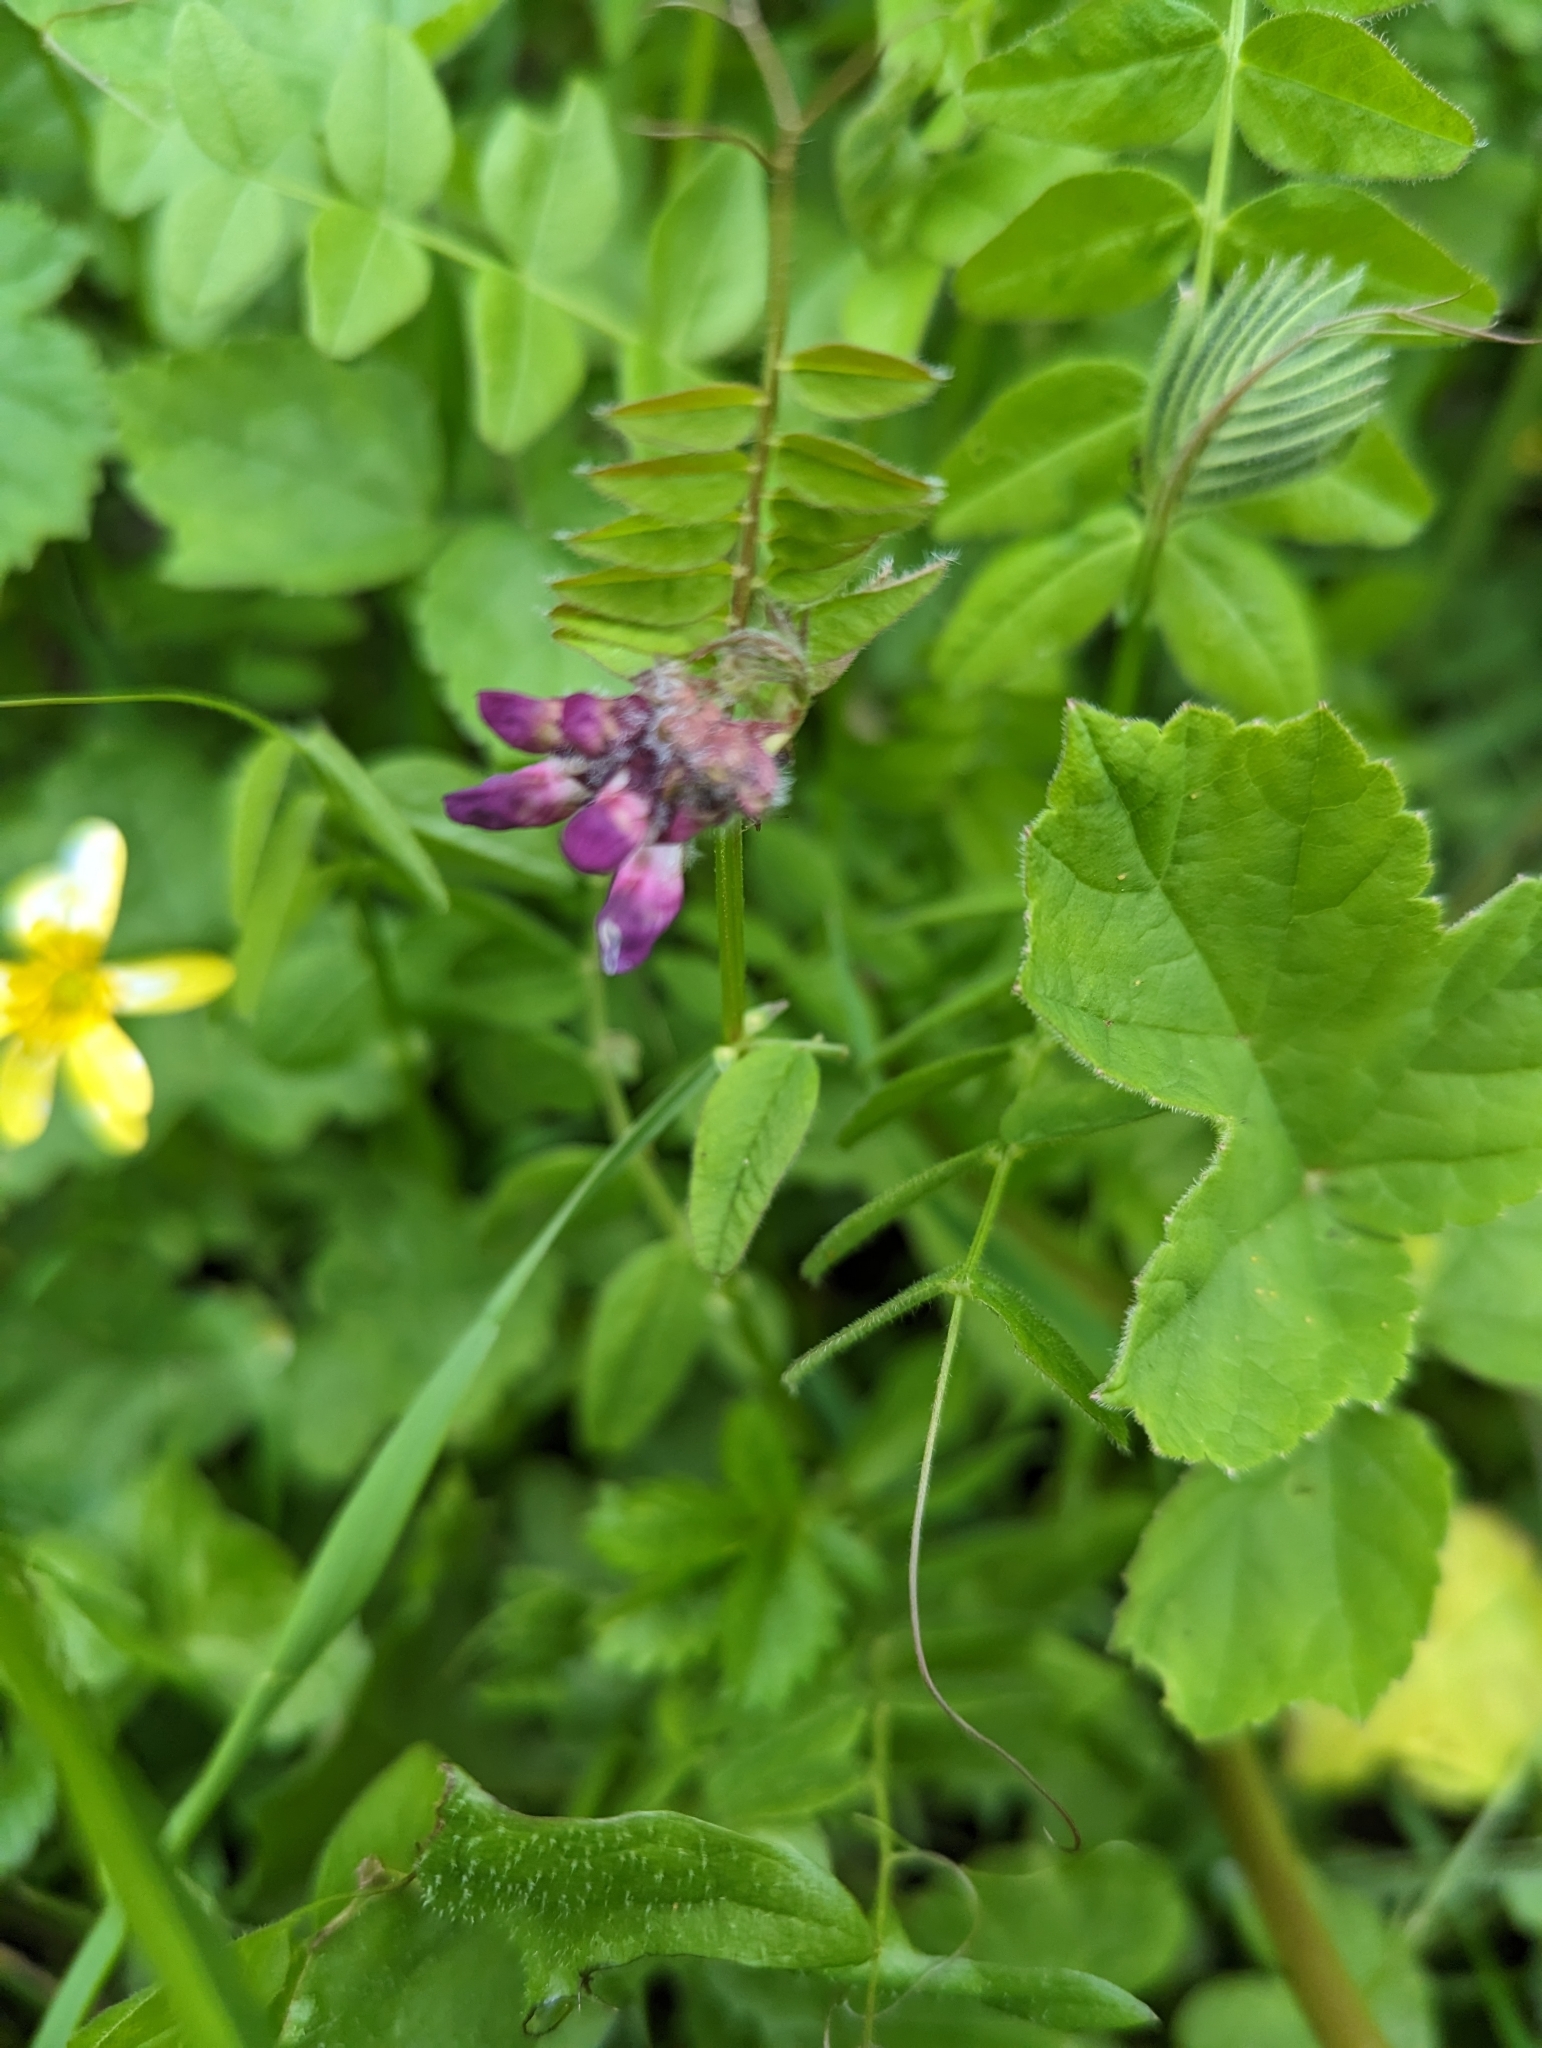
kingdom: Plantae
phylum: Tracheophyta
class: Magnoliopsida
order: Fabales
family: Fabaceae
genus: Vicia
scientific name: Vicia sepium
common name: Bush vetch
